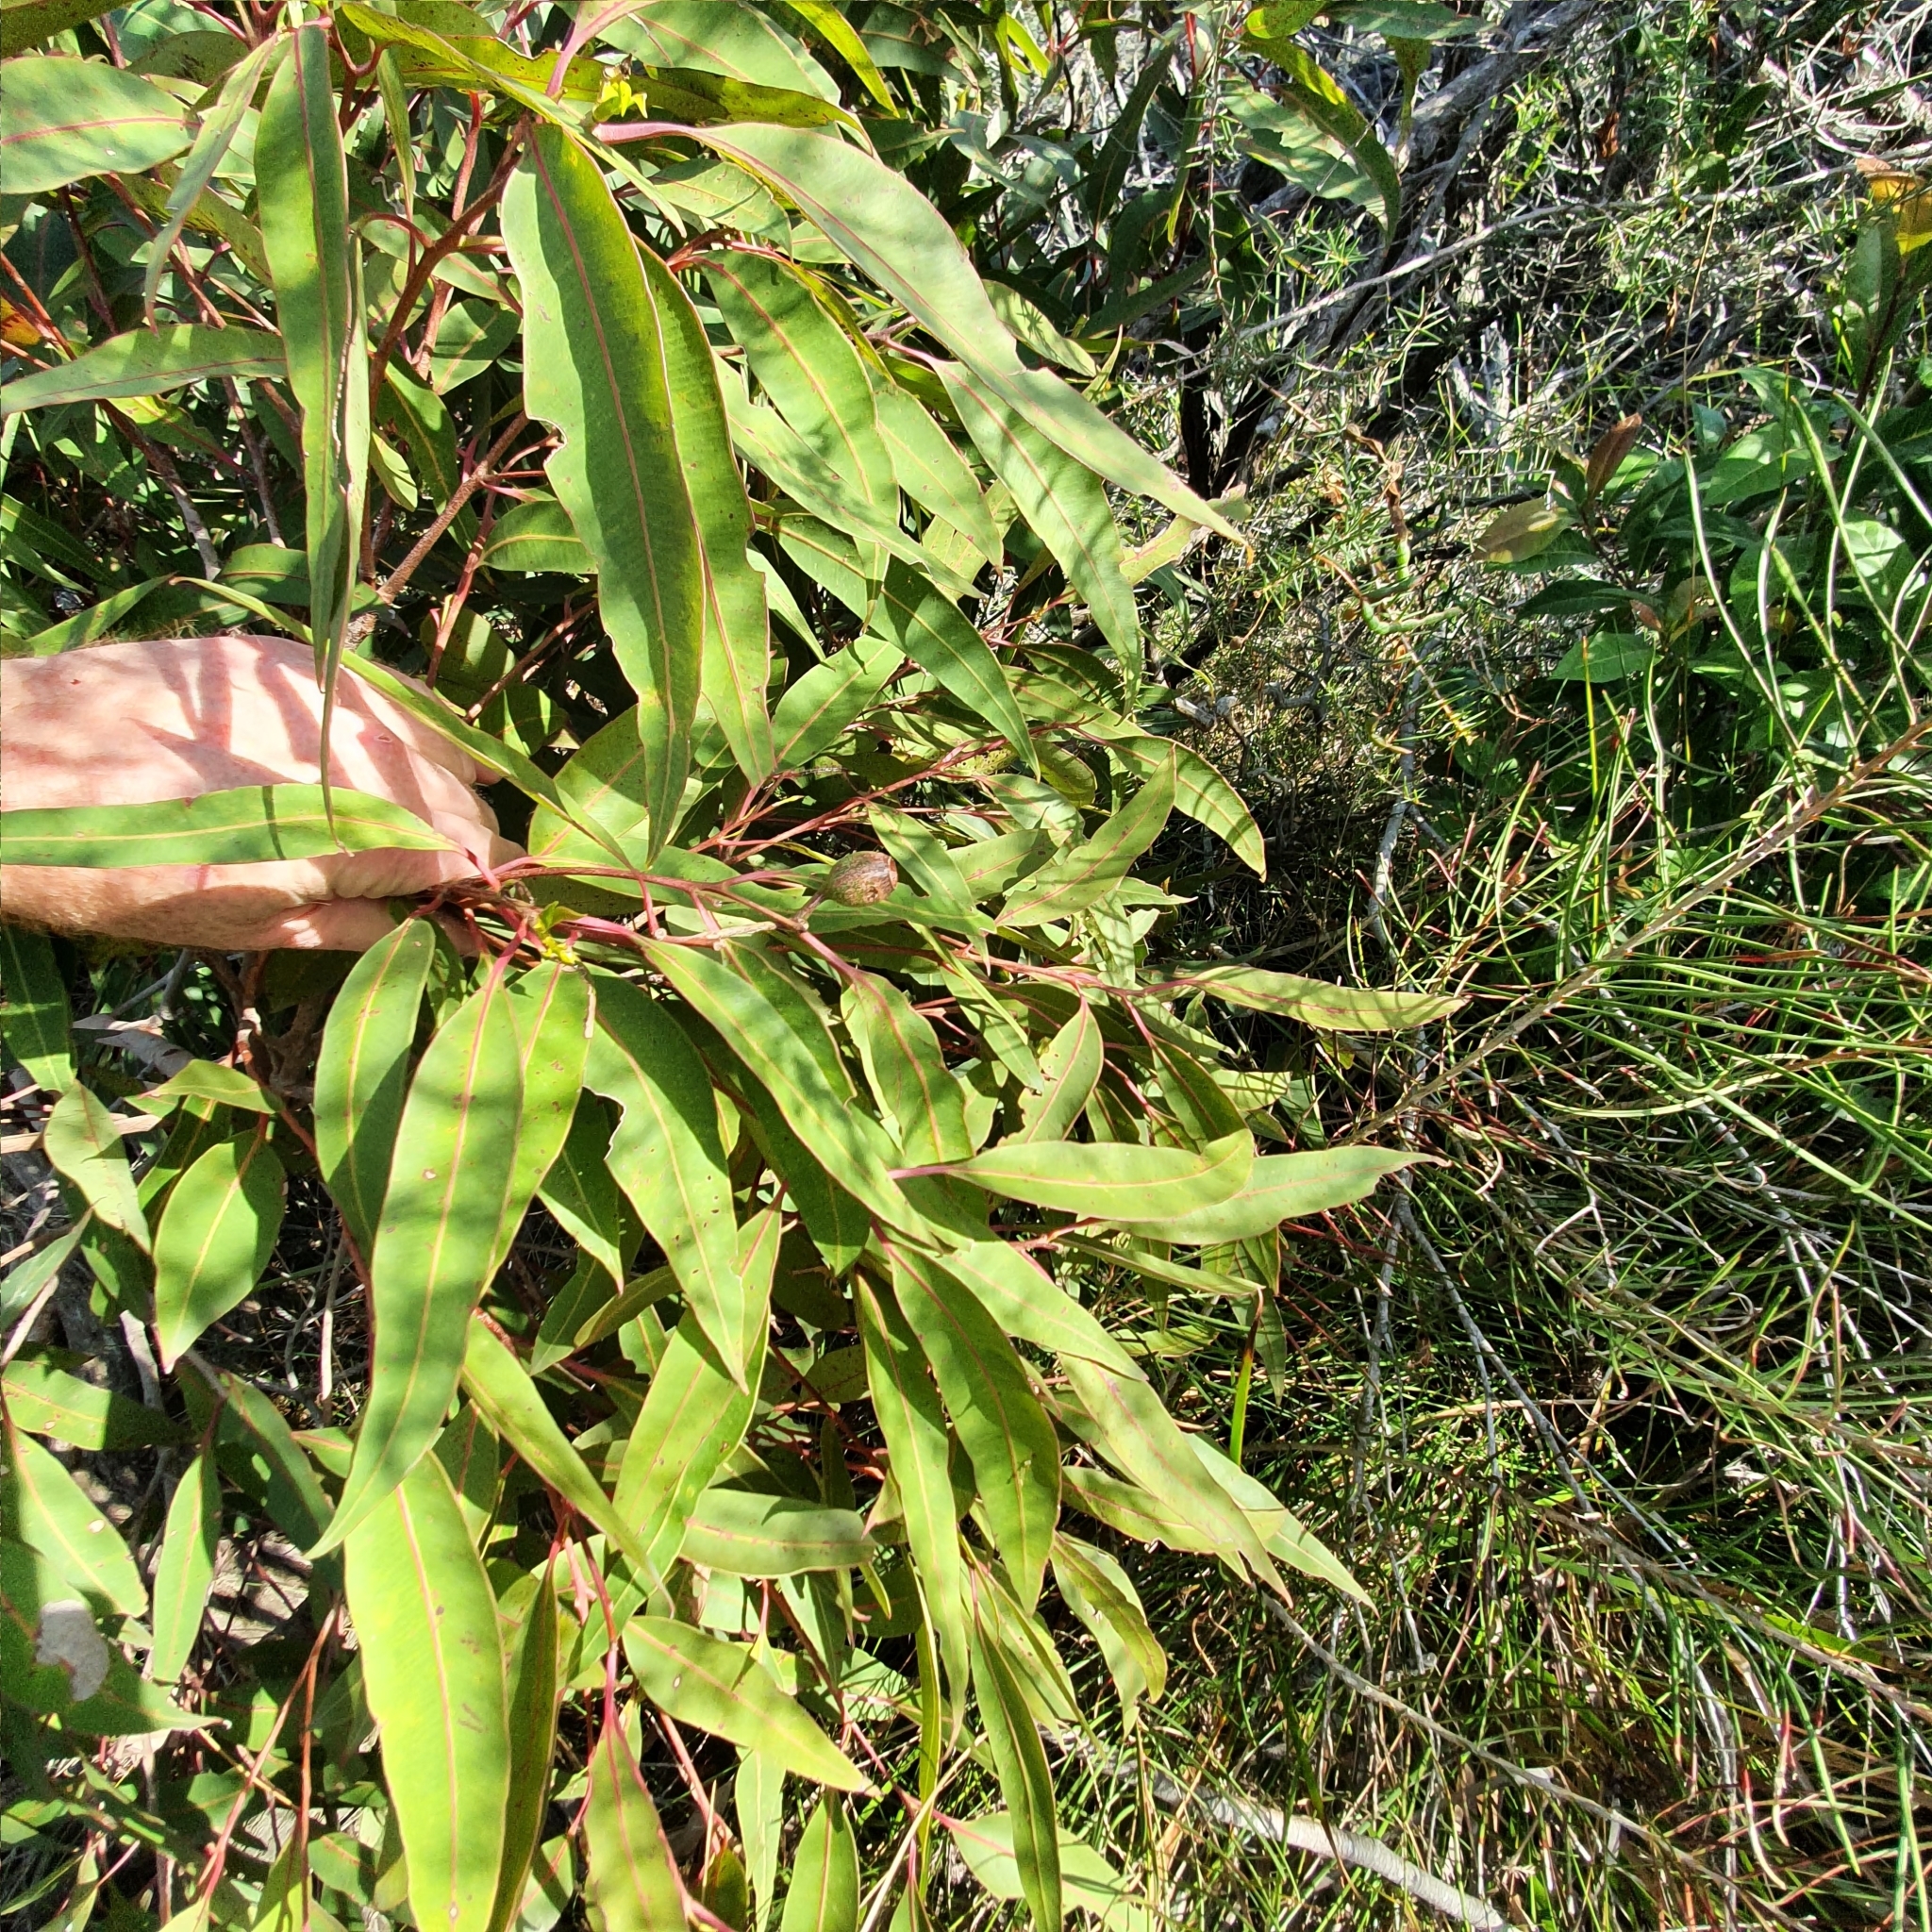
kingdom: Plantae
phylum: Tracheophyta
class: Magnoliopsida
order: Myrtales
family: Myrtaceae
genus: Corymbia
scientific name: Corymbia gummifera
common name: Red bloodwood
